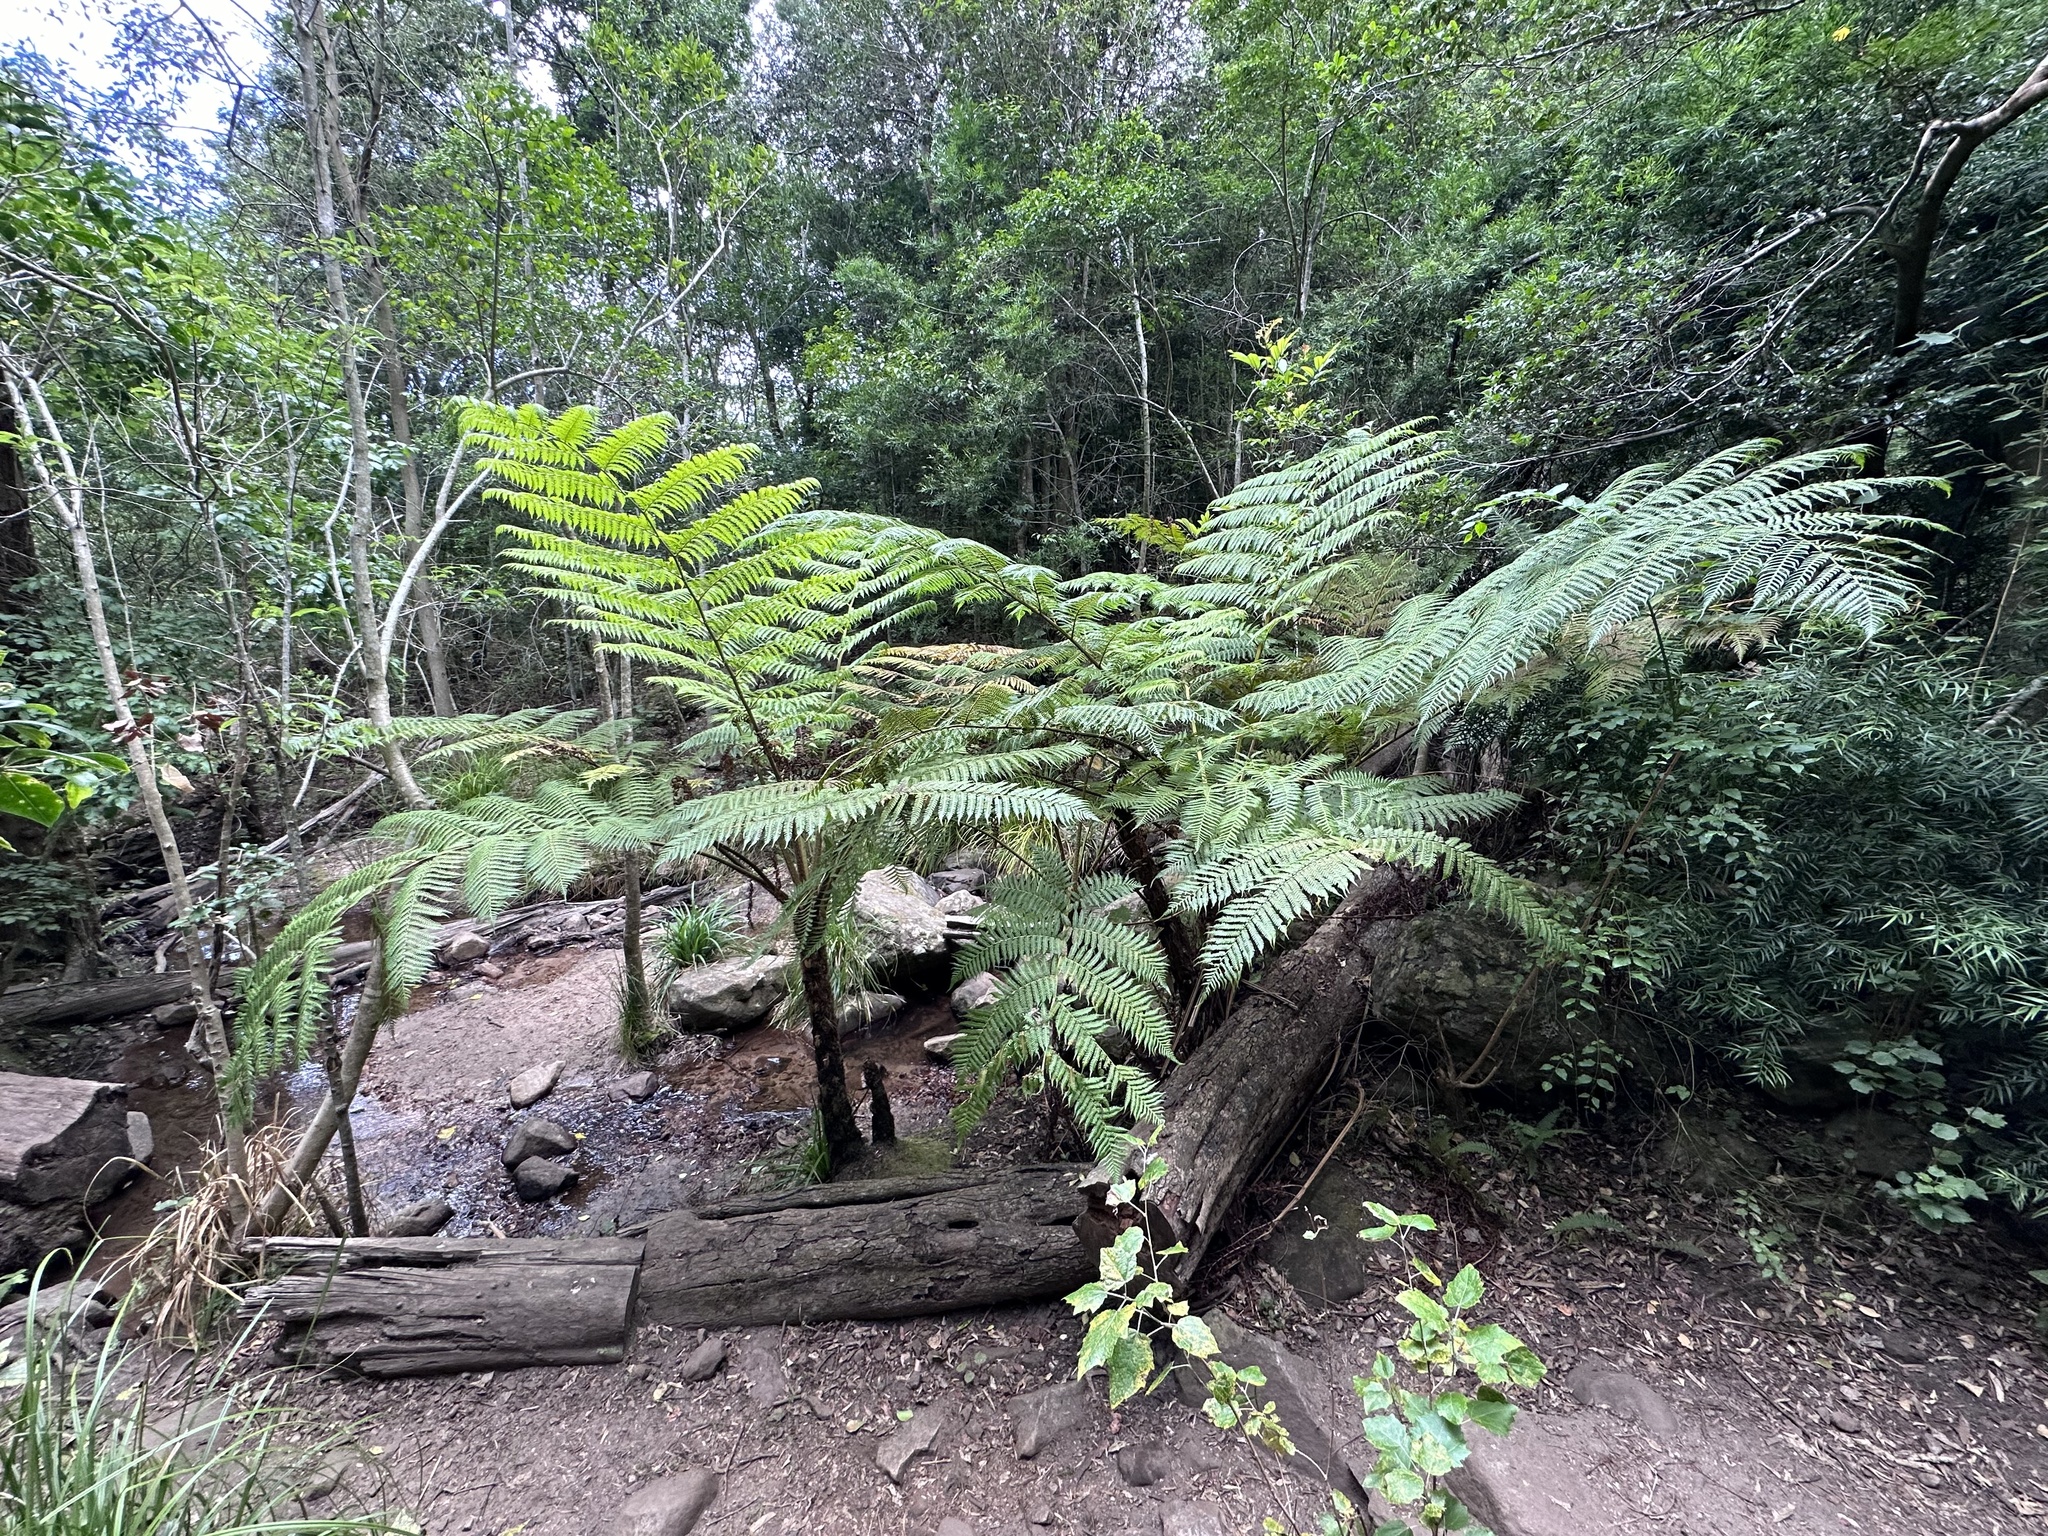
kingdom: Plantae
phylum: Tracheophyta
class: Polypodiopsida
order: Cyatheales
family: Cyatheaceae
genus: Sphaeropteris
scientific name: Sphaeropteris cooperi
